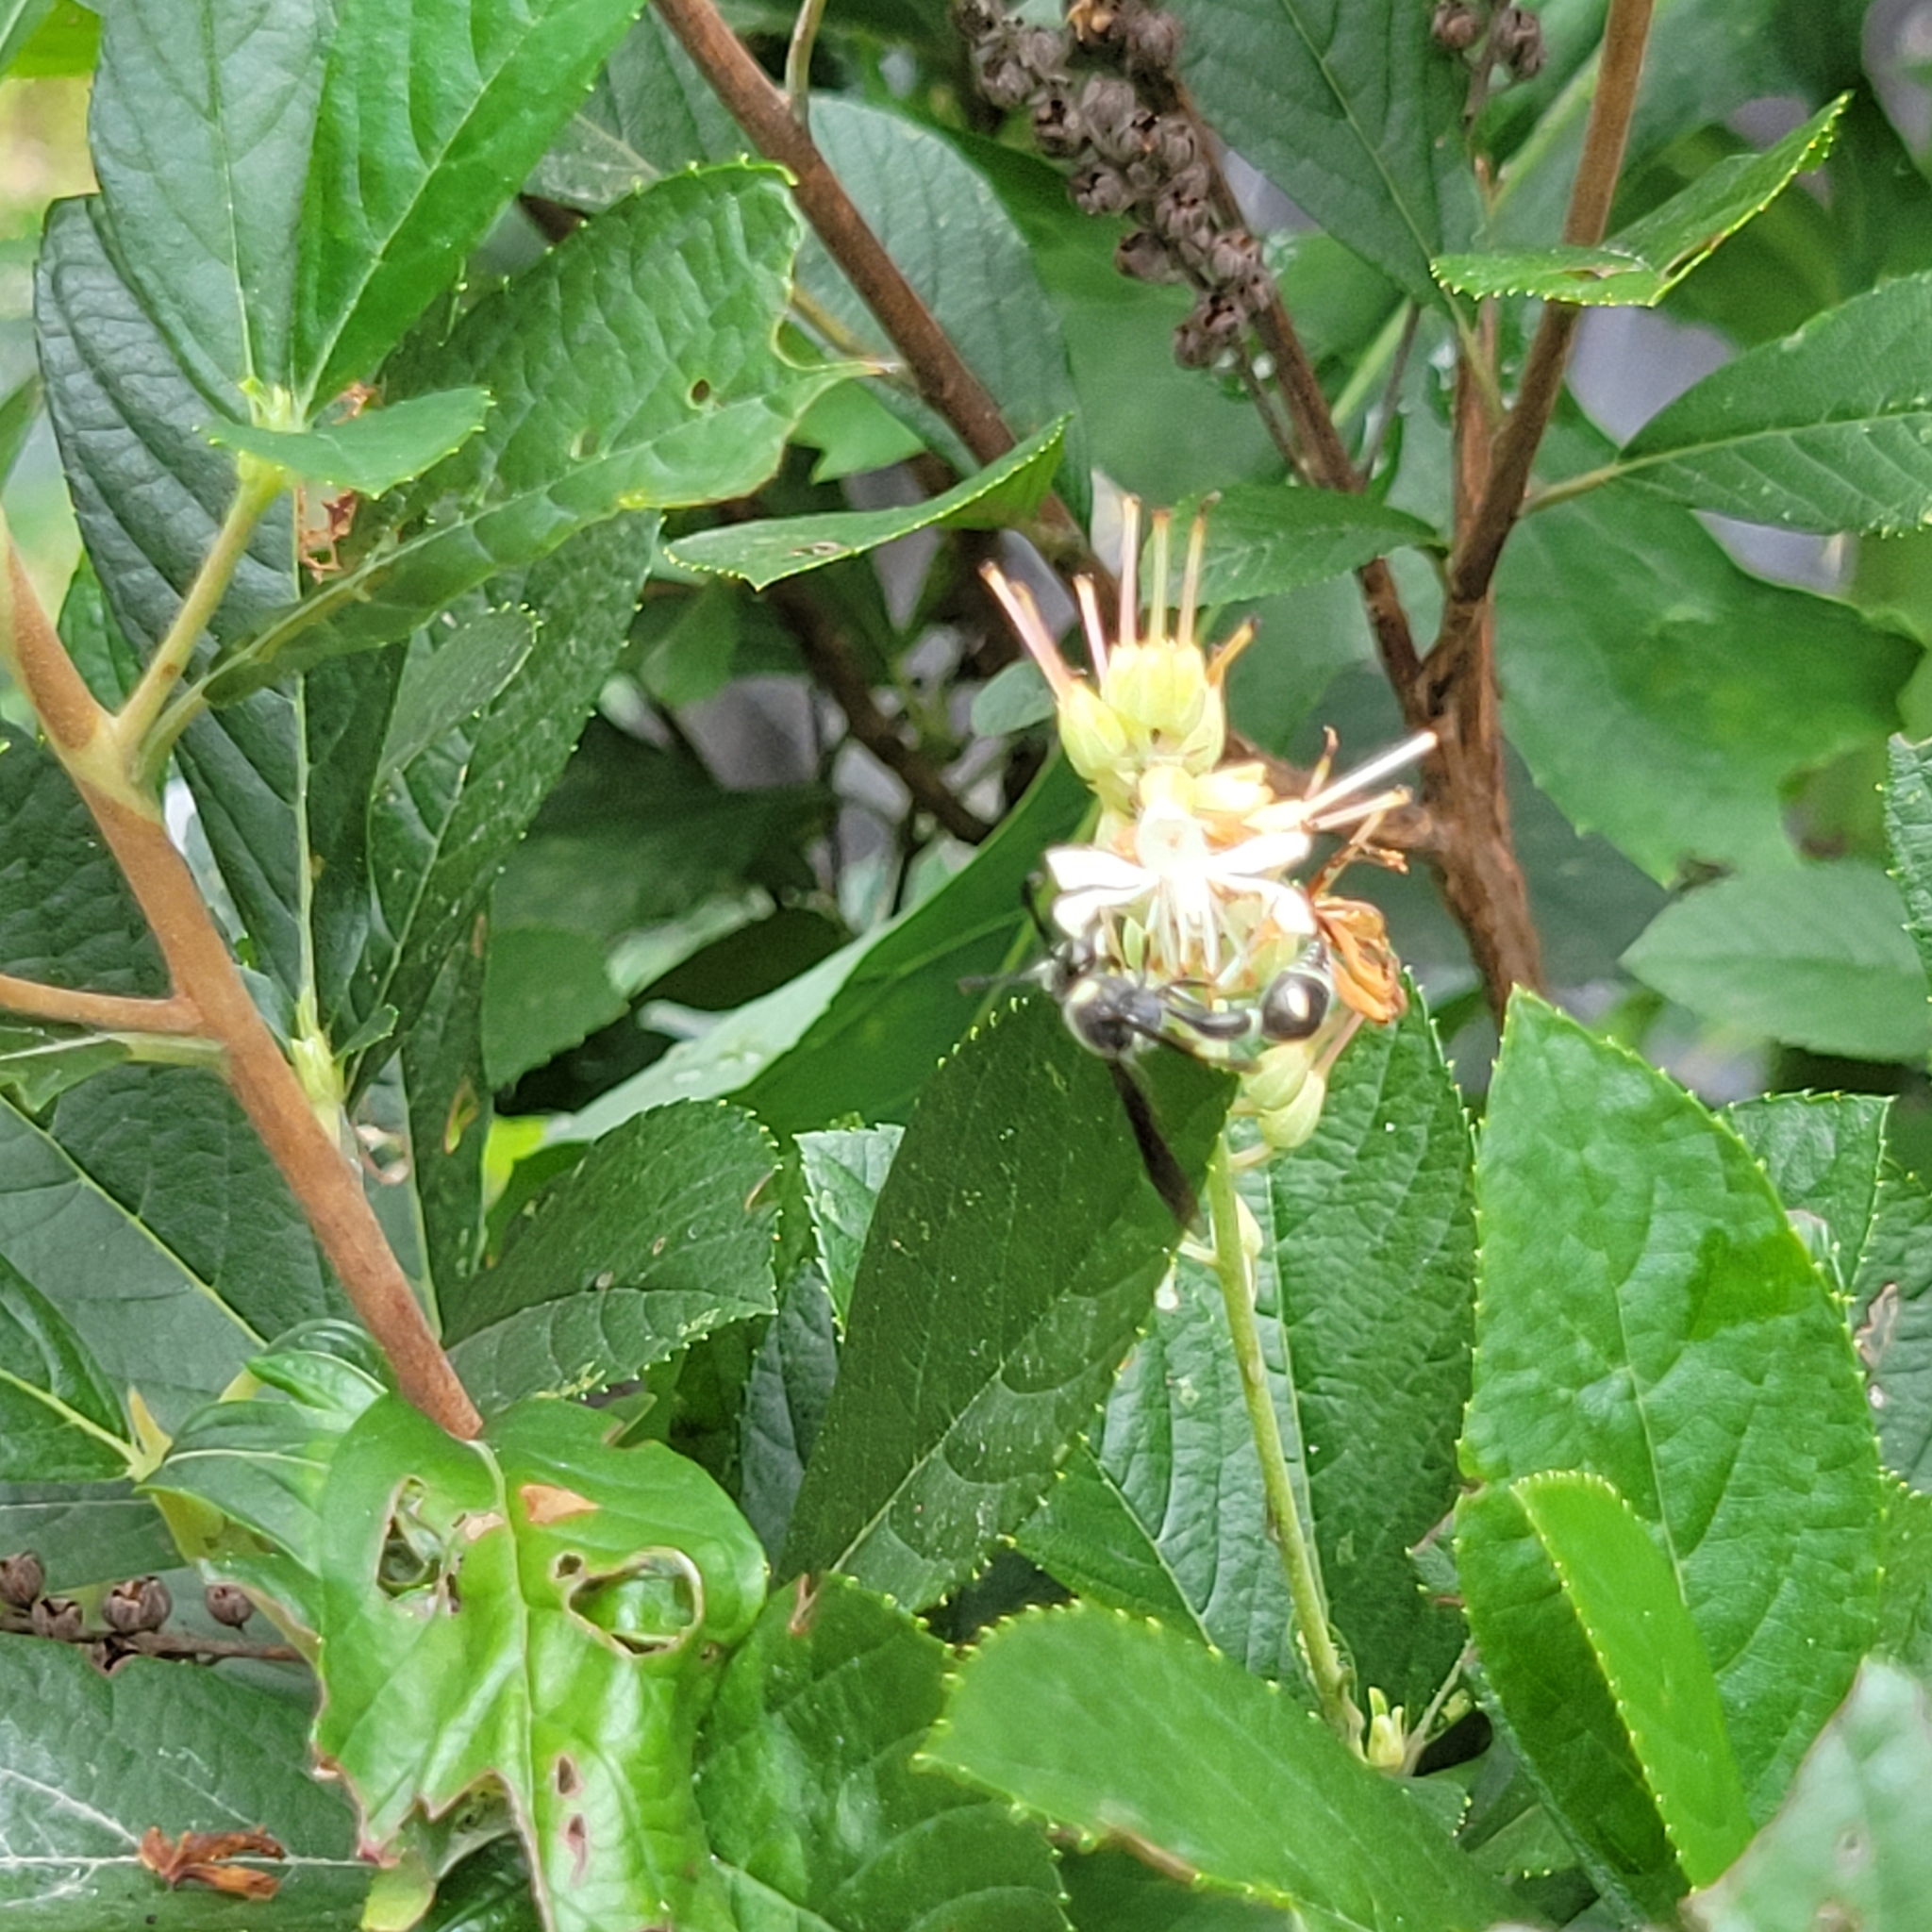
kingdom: Animalia
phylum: Arthropoda
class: Insecta
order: Hymenoptera
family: Vespidae
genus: Eumenes
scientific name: Eumenes fraternus
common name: Fraternal potter wasp
